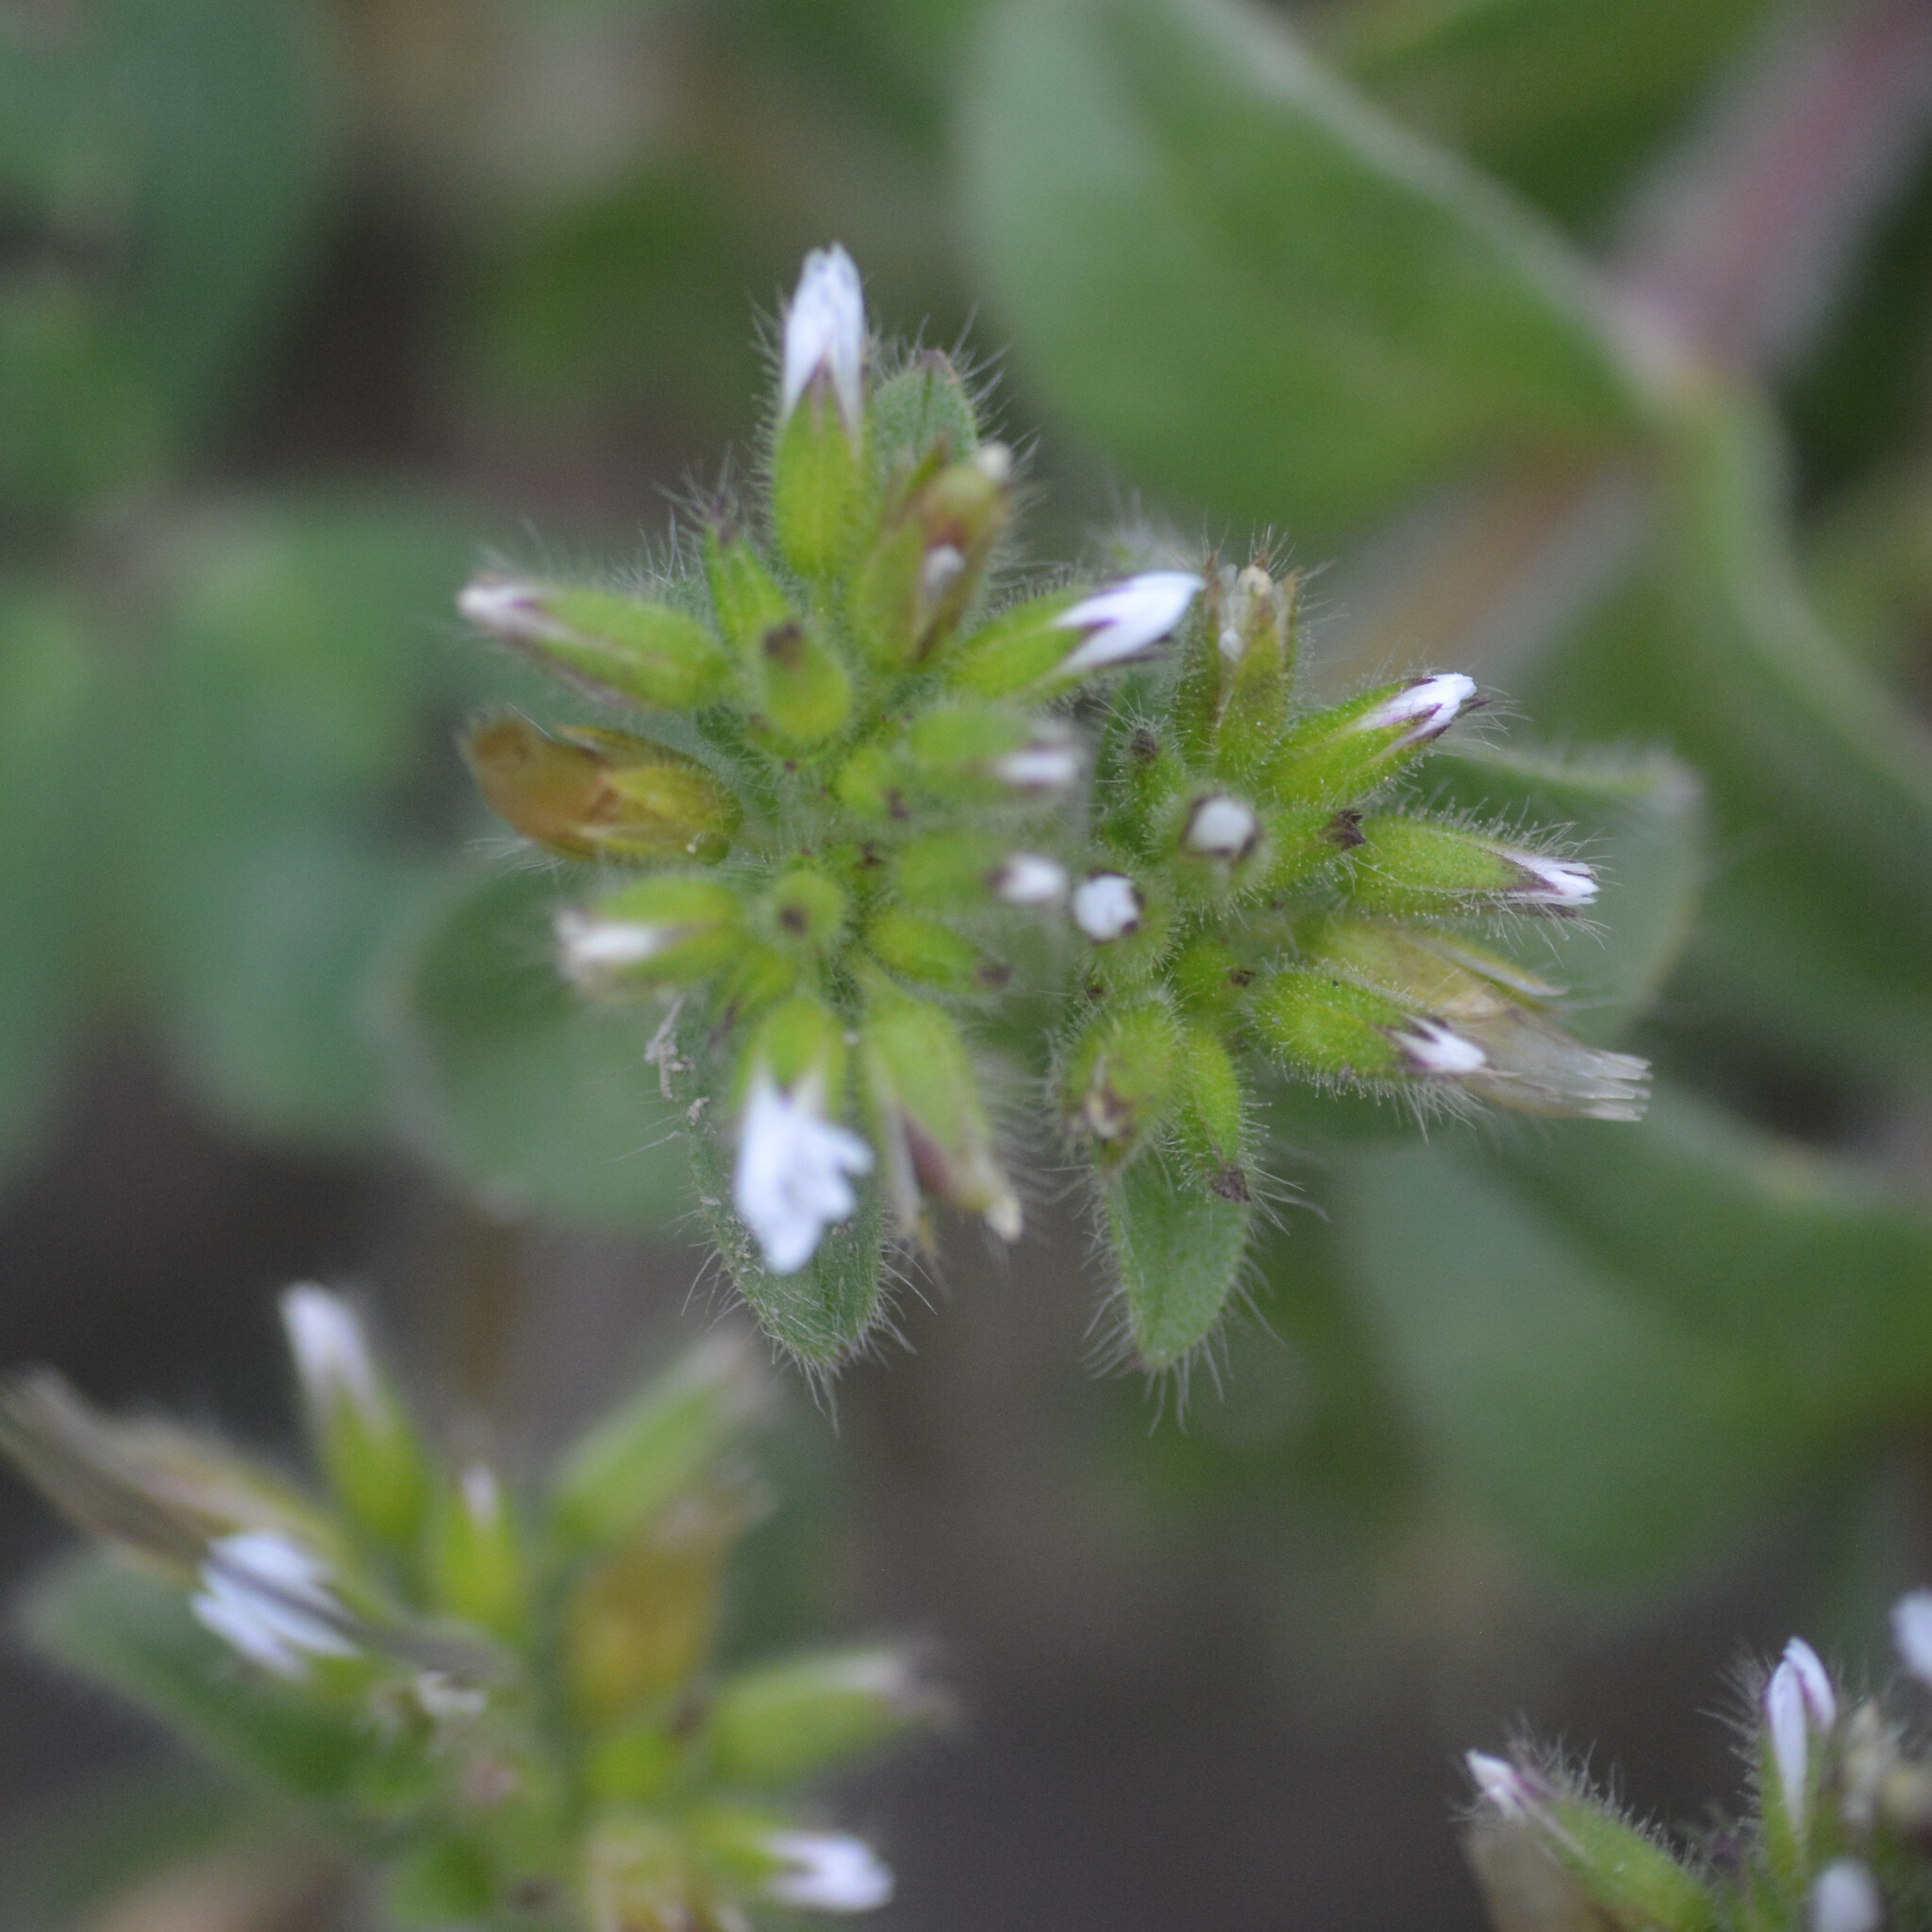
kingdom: Plantae
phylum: Tracheophyta
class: Magnoliopsida
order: Caryophyllales
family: Caryophyllaceae
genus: Cerastium
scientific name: Cerastium glomeratum
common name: Sticky chickweed
